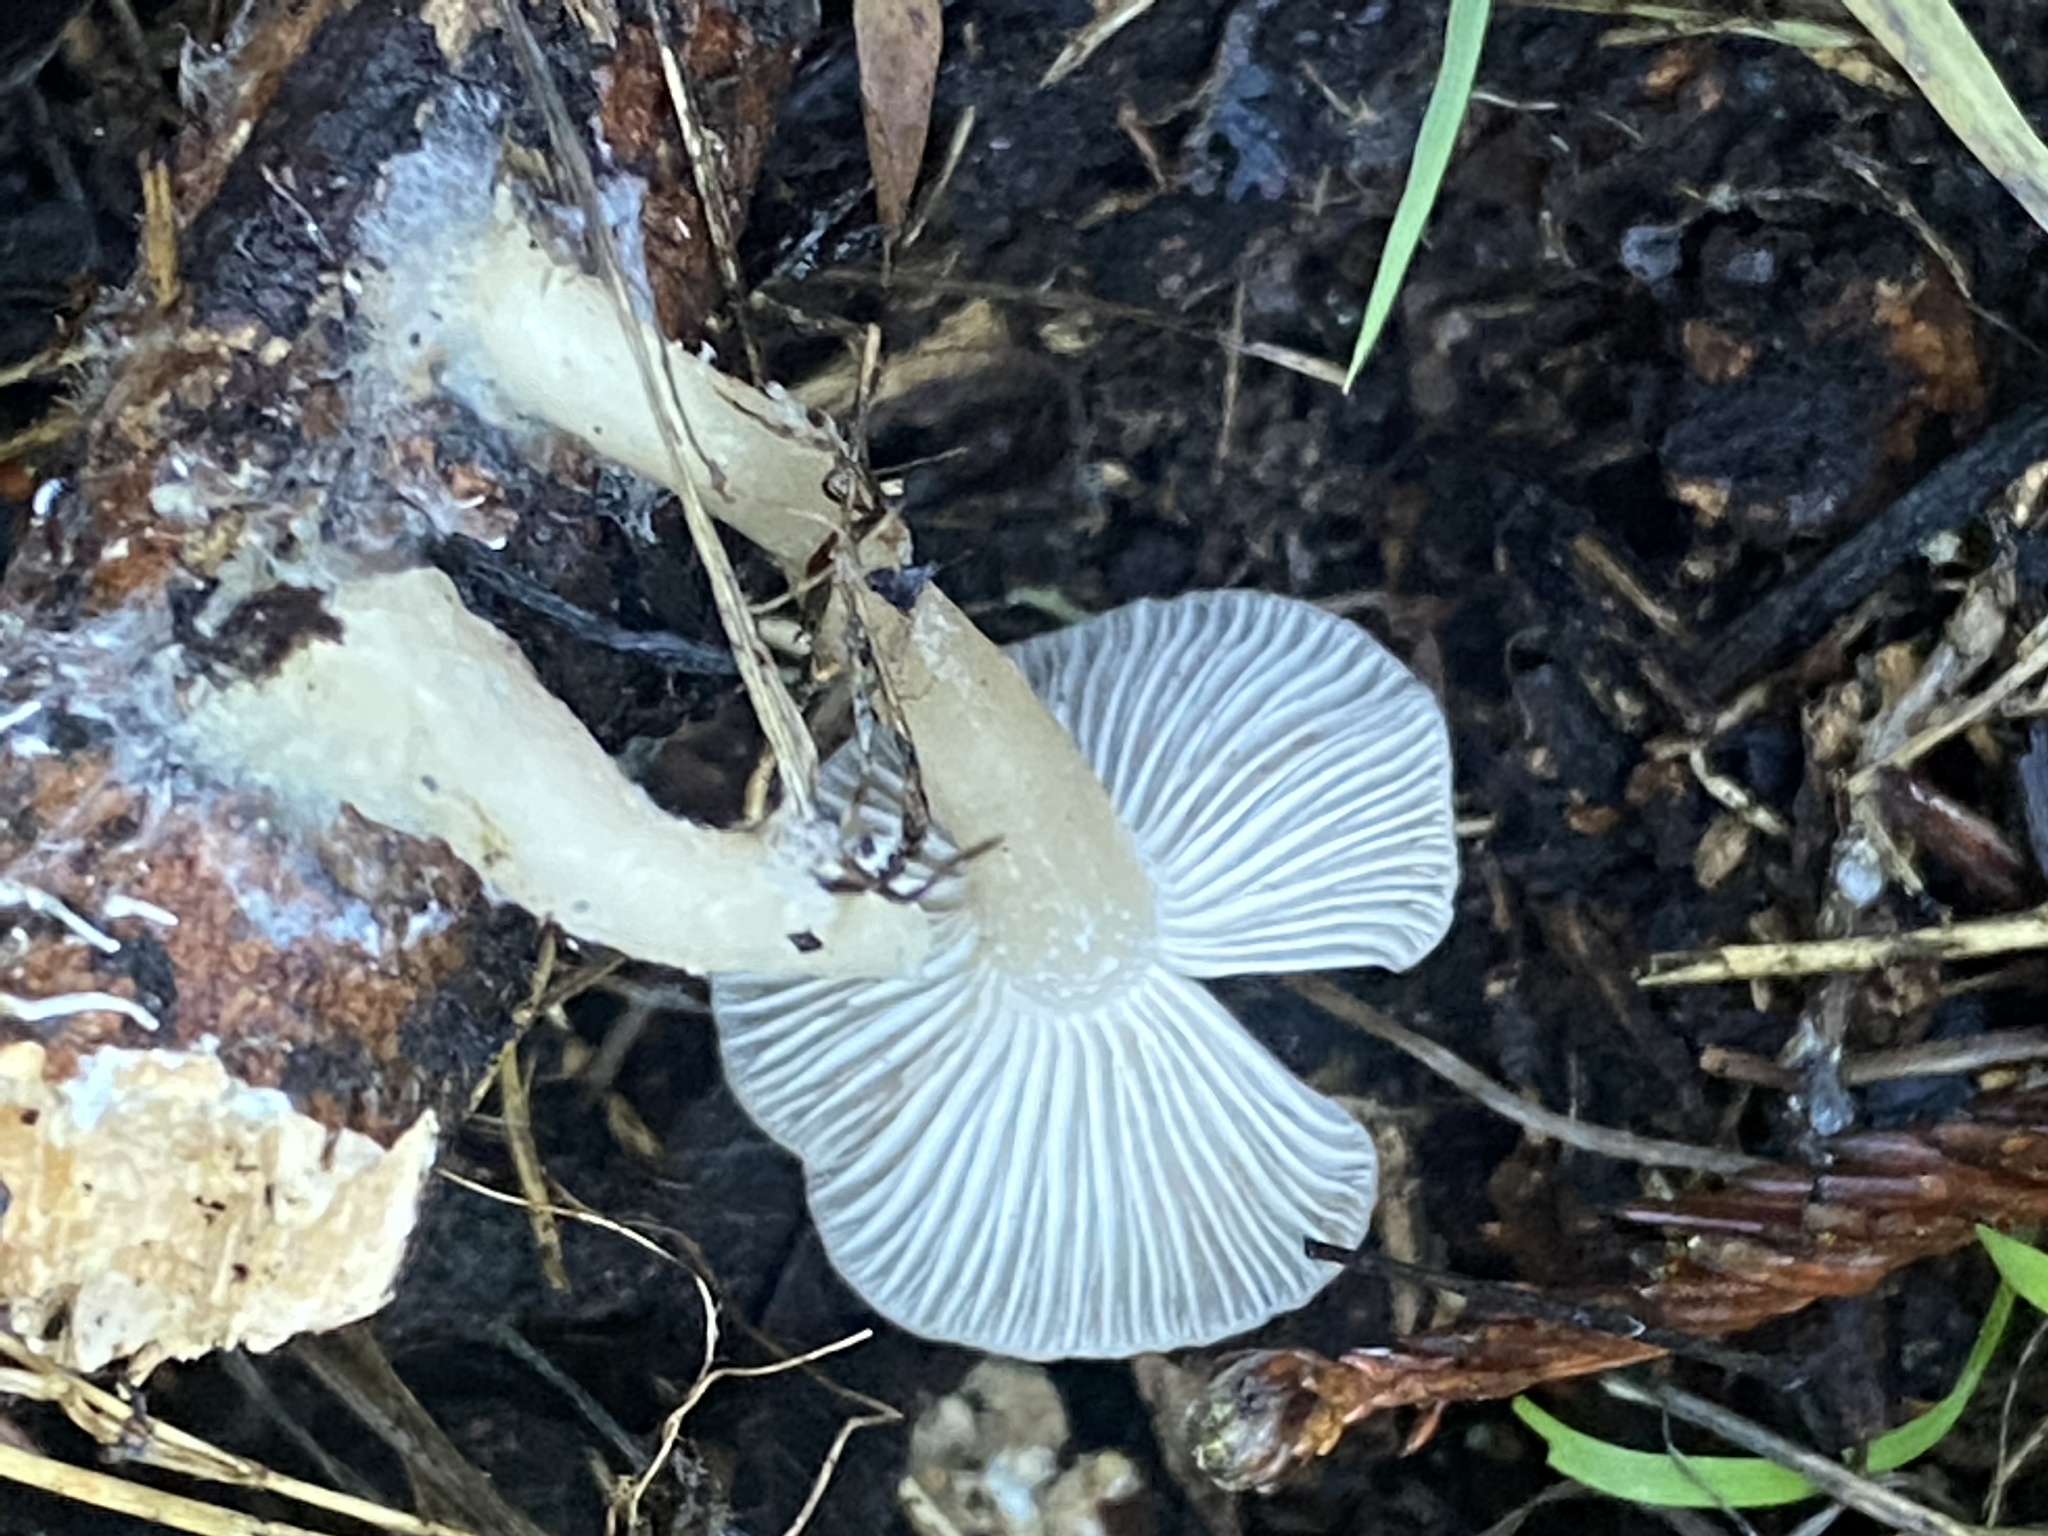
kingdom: Fungi
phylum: Basidiomycota
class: Agaricomycetes
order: Agaricales
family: Tricholomataceae
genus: Clitocybe
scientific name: Clitocybe fragrans
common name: Fragrant funnel
